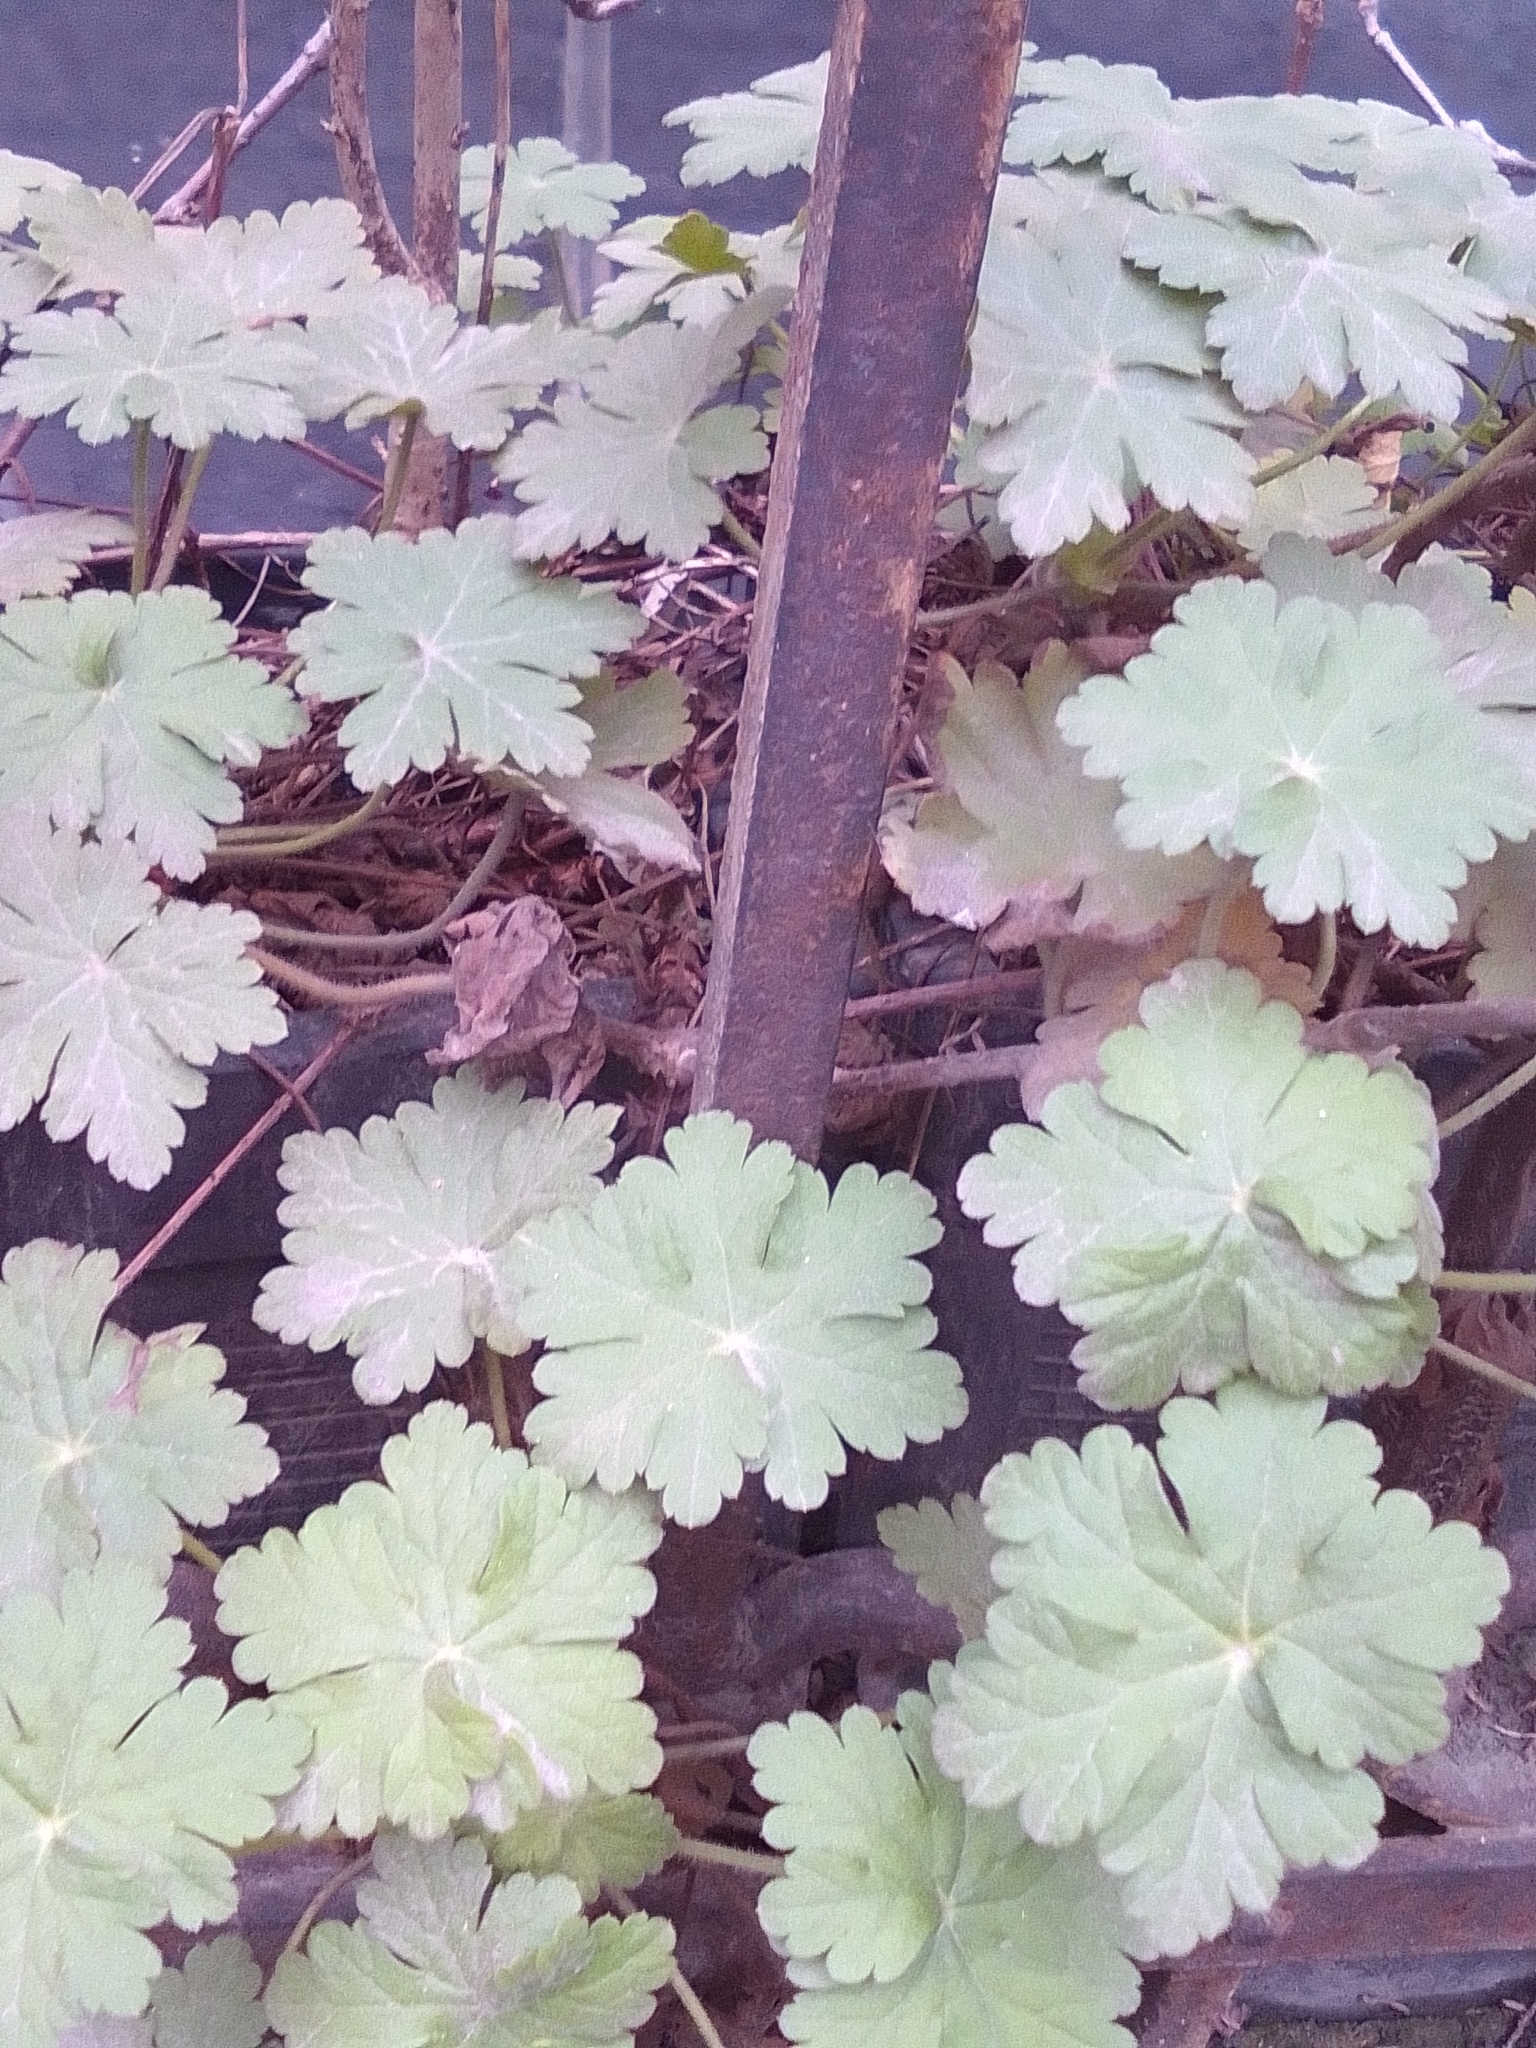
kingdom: Plantae
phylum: Tracheophyta
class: Magnoliopsida
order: Geraniales
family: Geraniaceae
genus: Geranium
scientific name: Geranium macrorrhizum
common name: Rock crane's-bill
